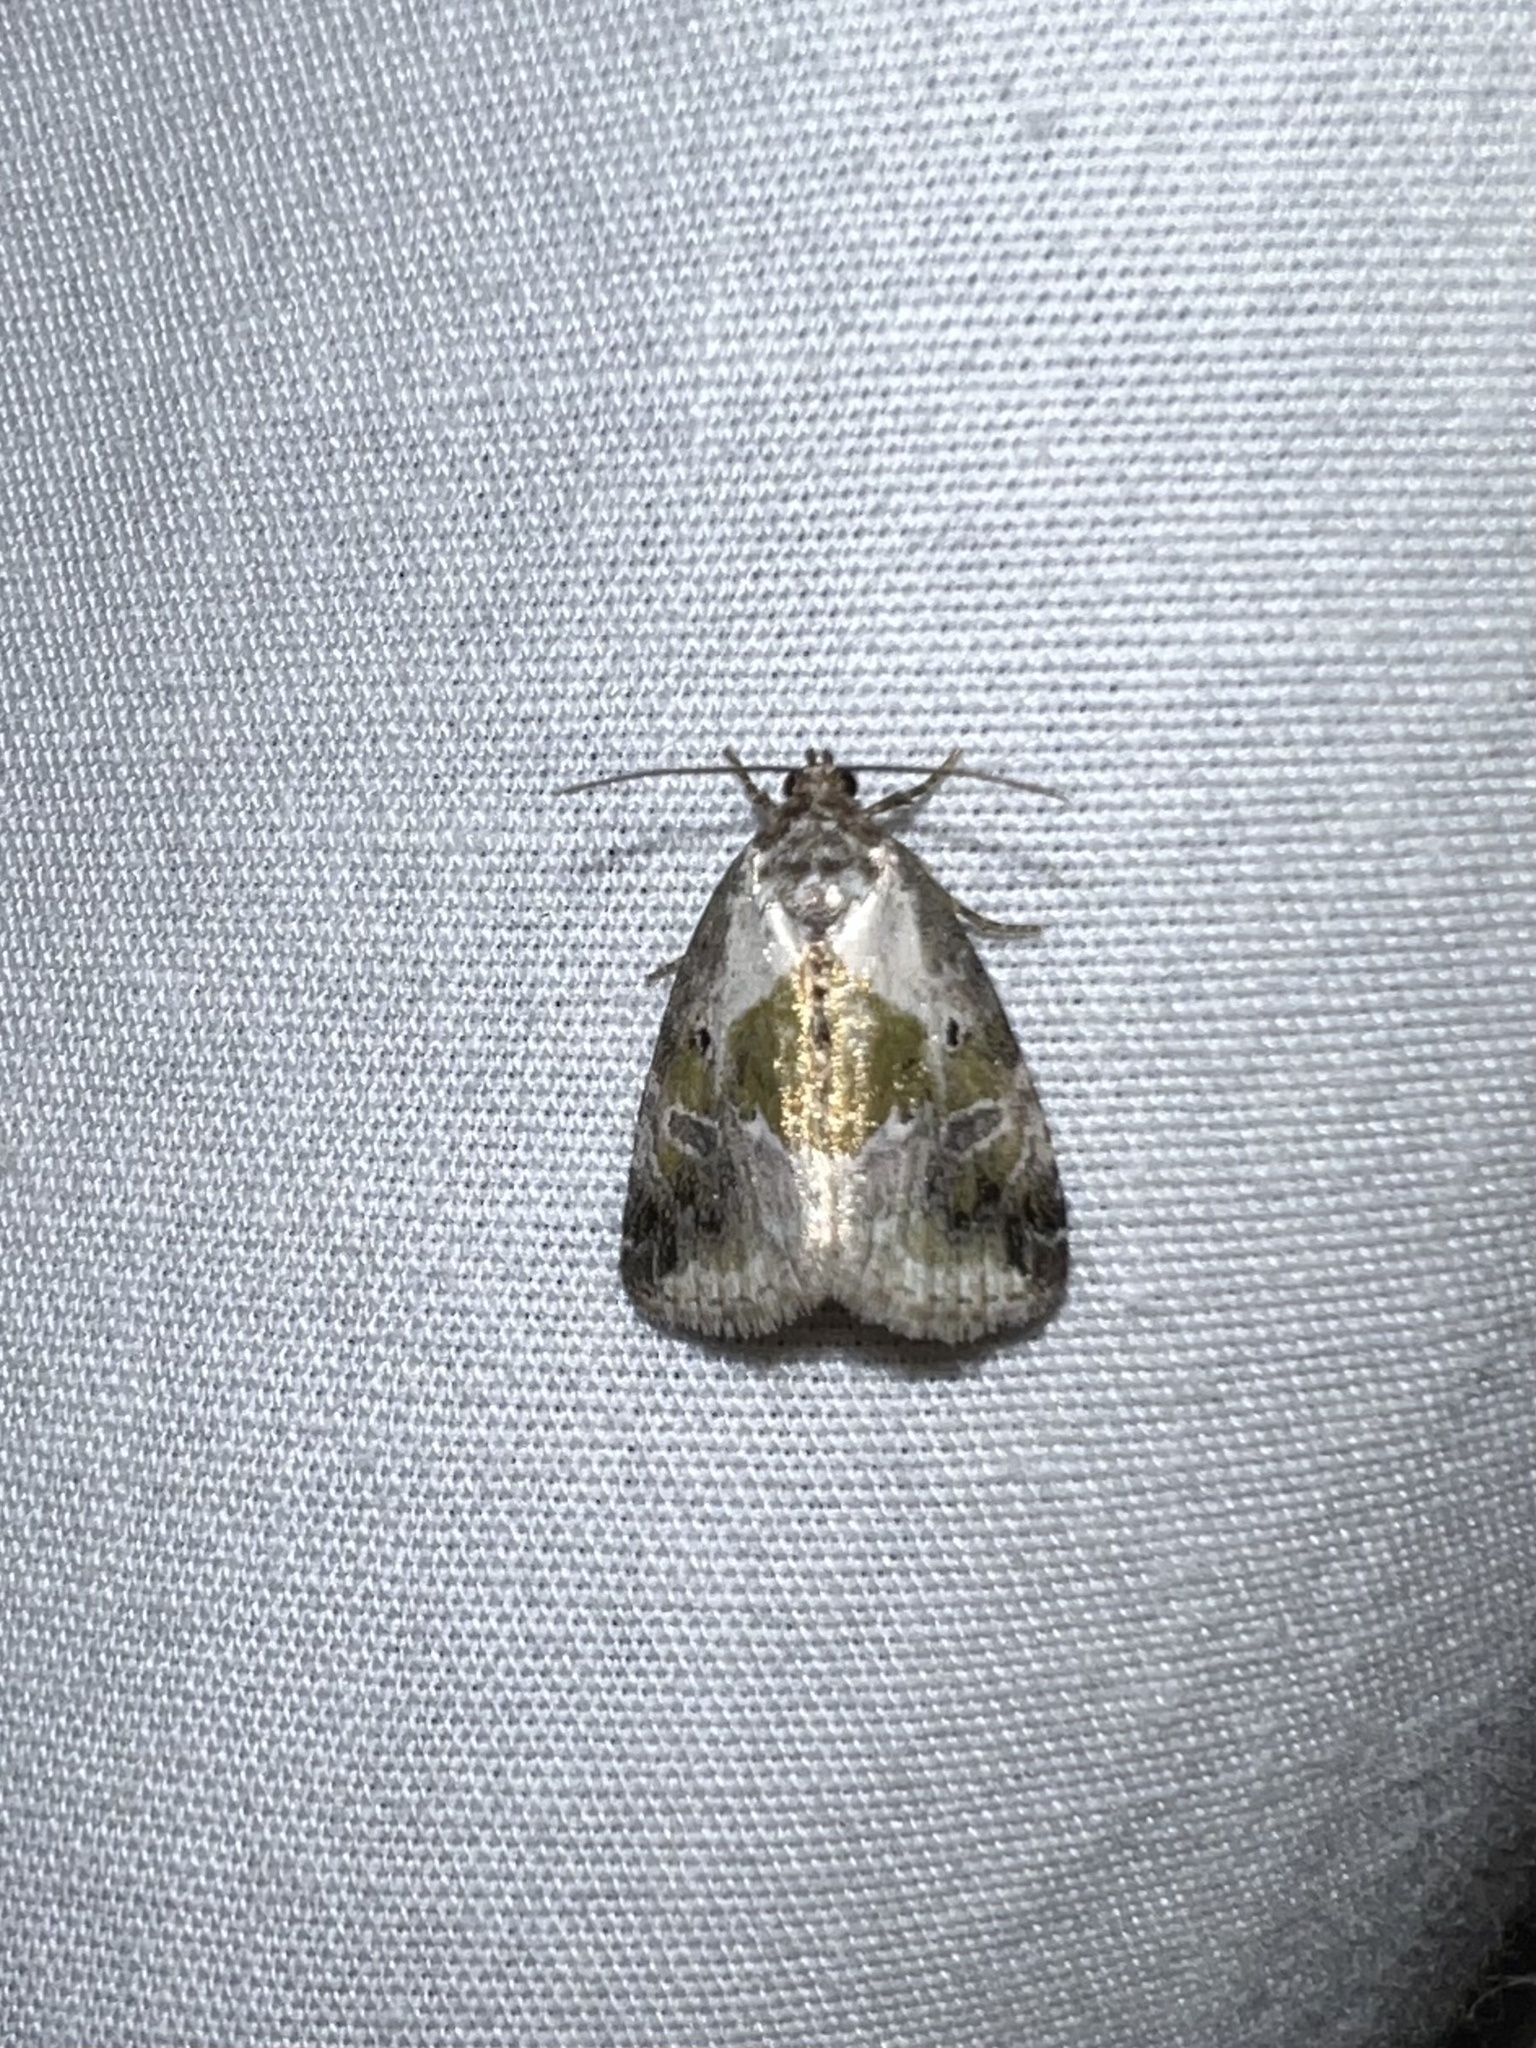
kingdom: Animalia
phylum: Arthropoda
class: Insecta
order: Lepidoptera
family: Noctuidae
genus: Maliattha
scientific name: Maliattha synochitis
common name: Black-dotted glyph
